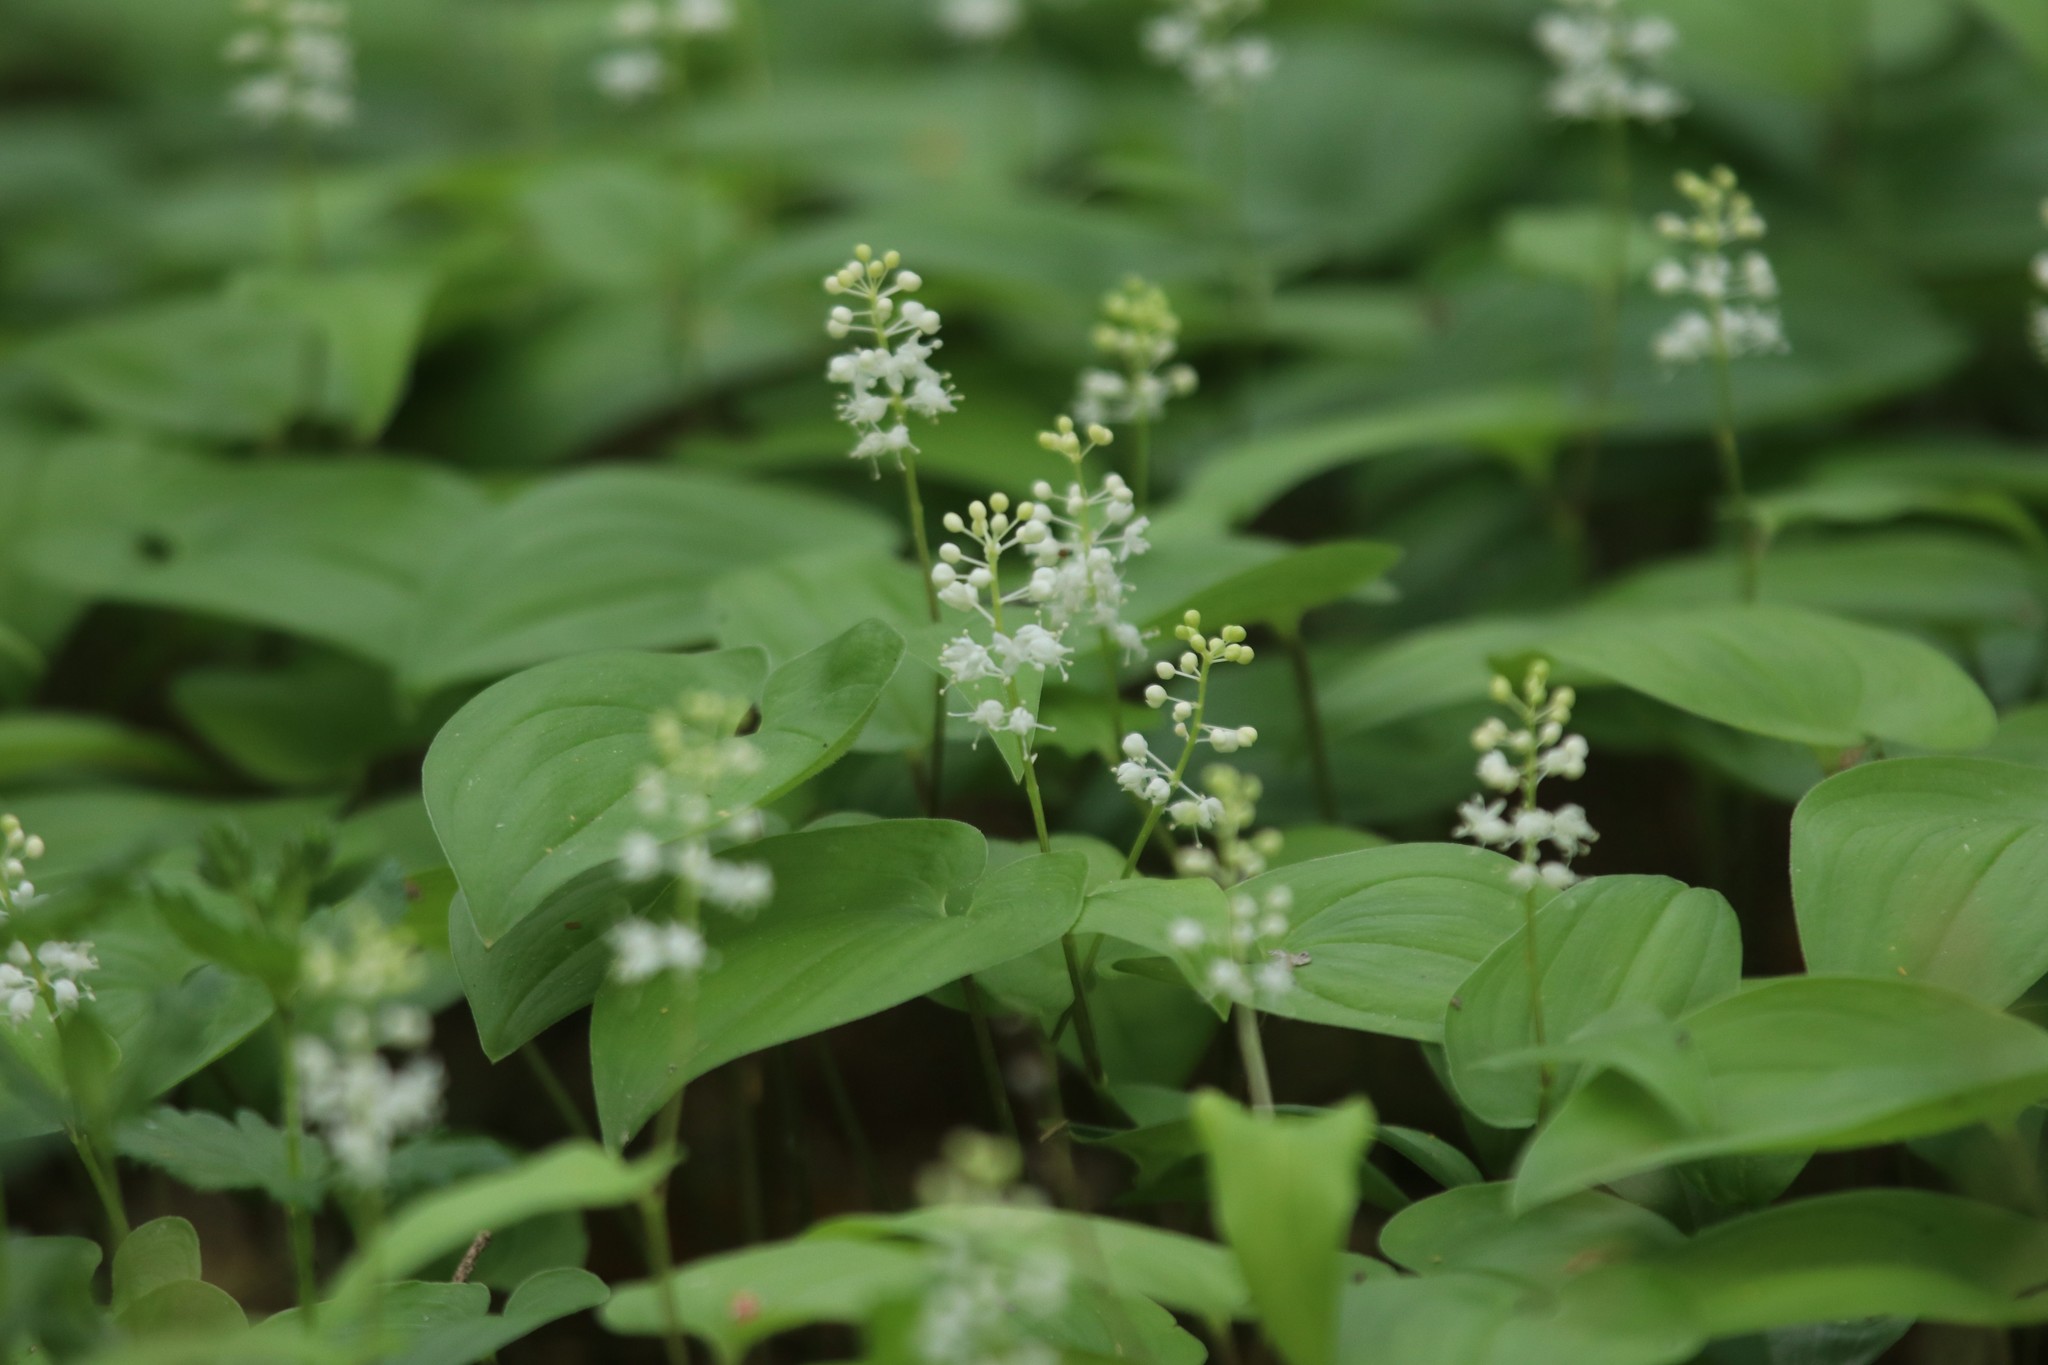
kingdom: Plantae
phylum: Tracheophyta
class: Liliopsida
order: Asparagales
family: Asparagaceae
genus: Maianthemum
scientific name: Maianthemum bifolium
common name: May lily
